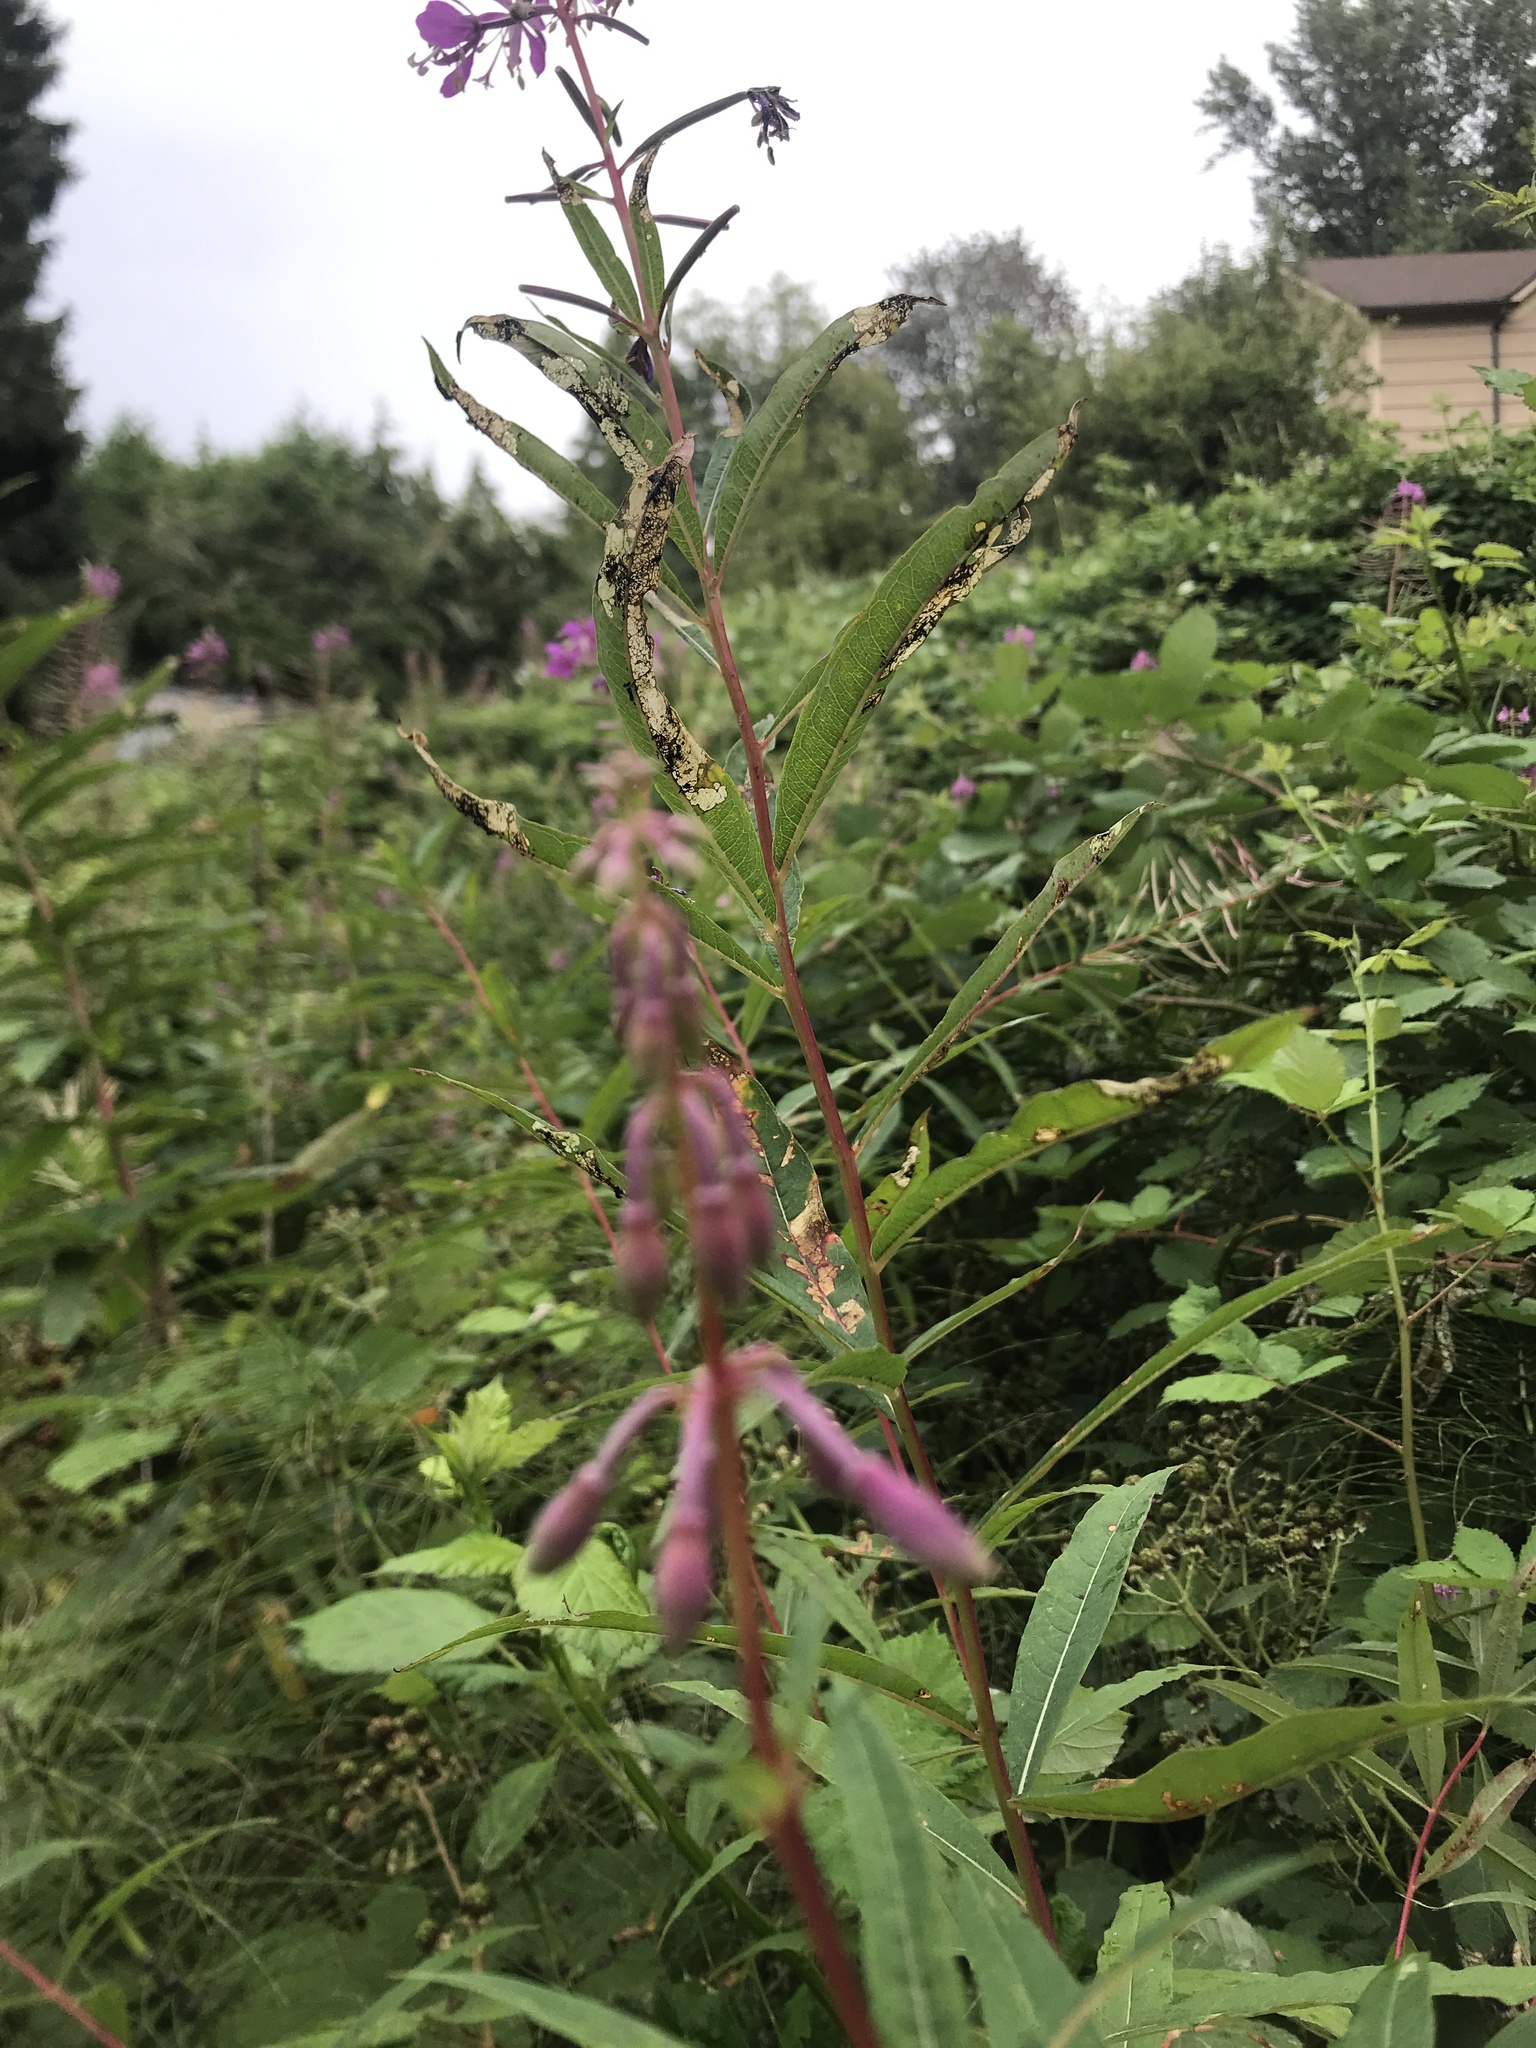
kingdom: Plantae
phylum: Tracheophyta
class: Magnoliopsida
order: Myrtales
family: Onagraceae
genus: Chamaenerion
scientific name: Chamaenerion angustifolium
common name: Fireweed
